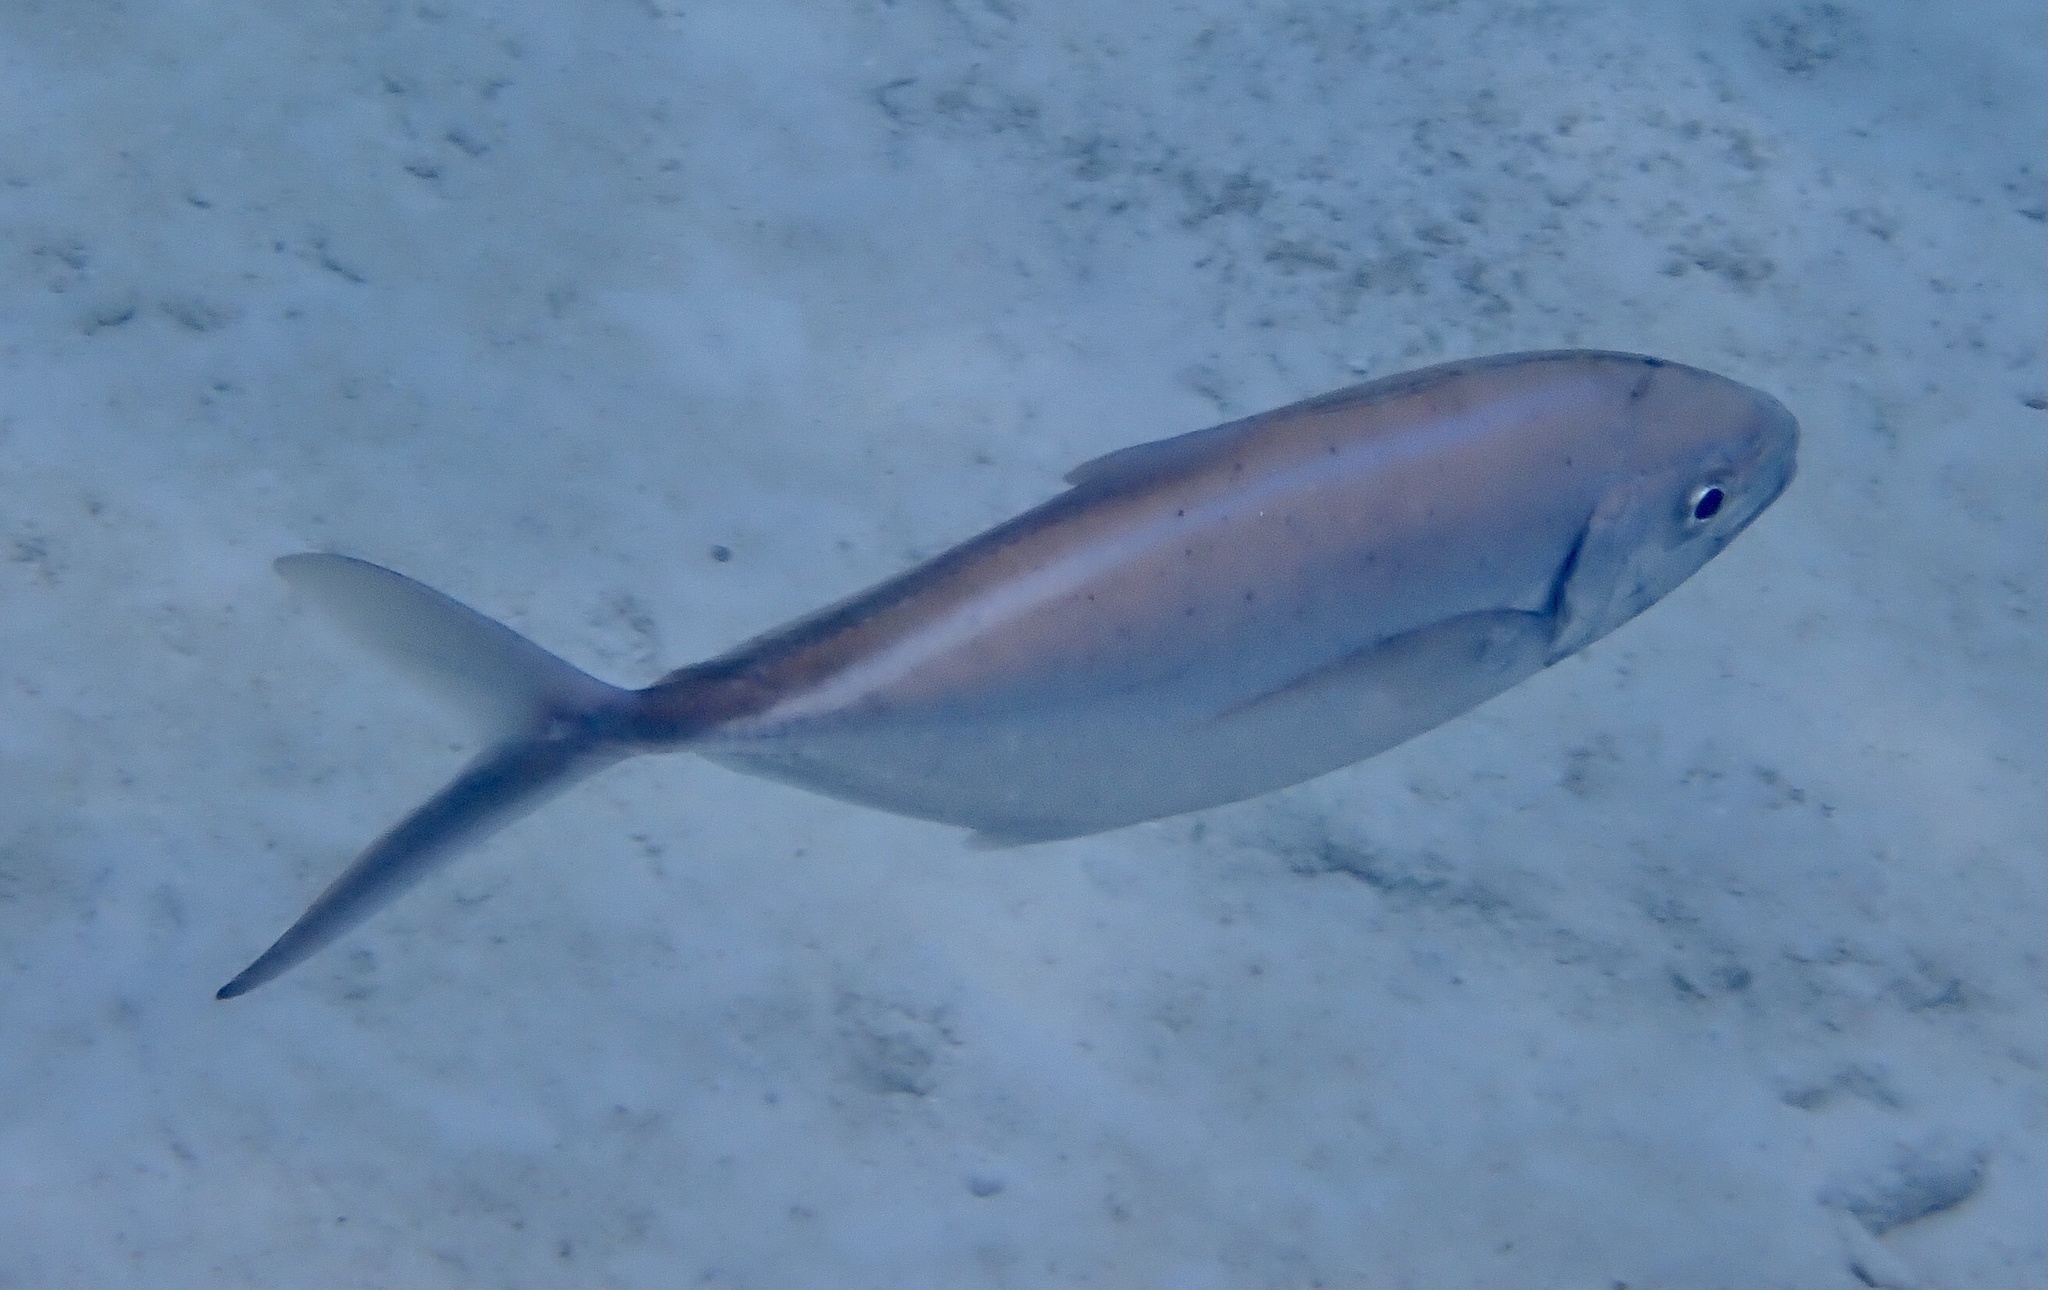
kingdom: Animalia
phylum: Chordata
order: Perciformes
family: Carangidae
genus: Caranx
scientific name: Caranx ruber
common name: Bar jack
